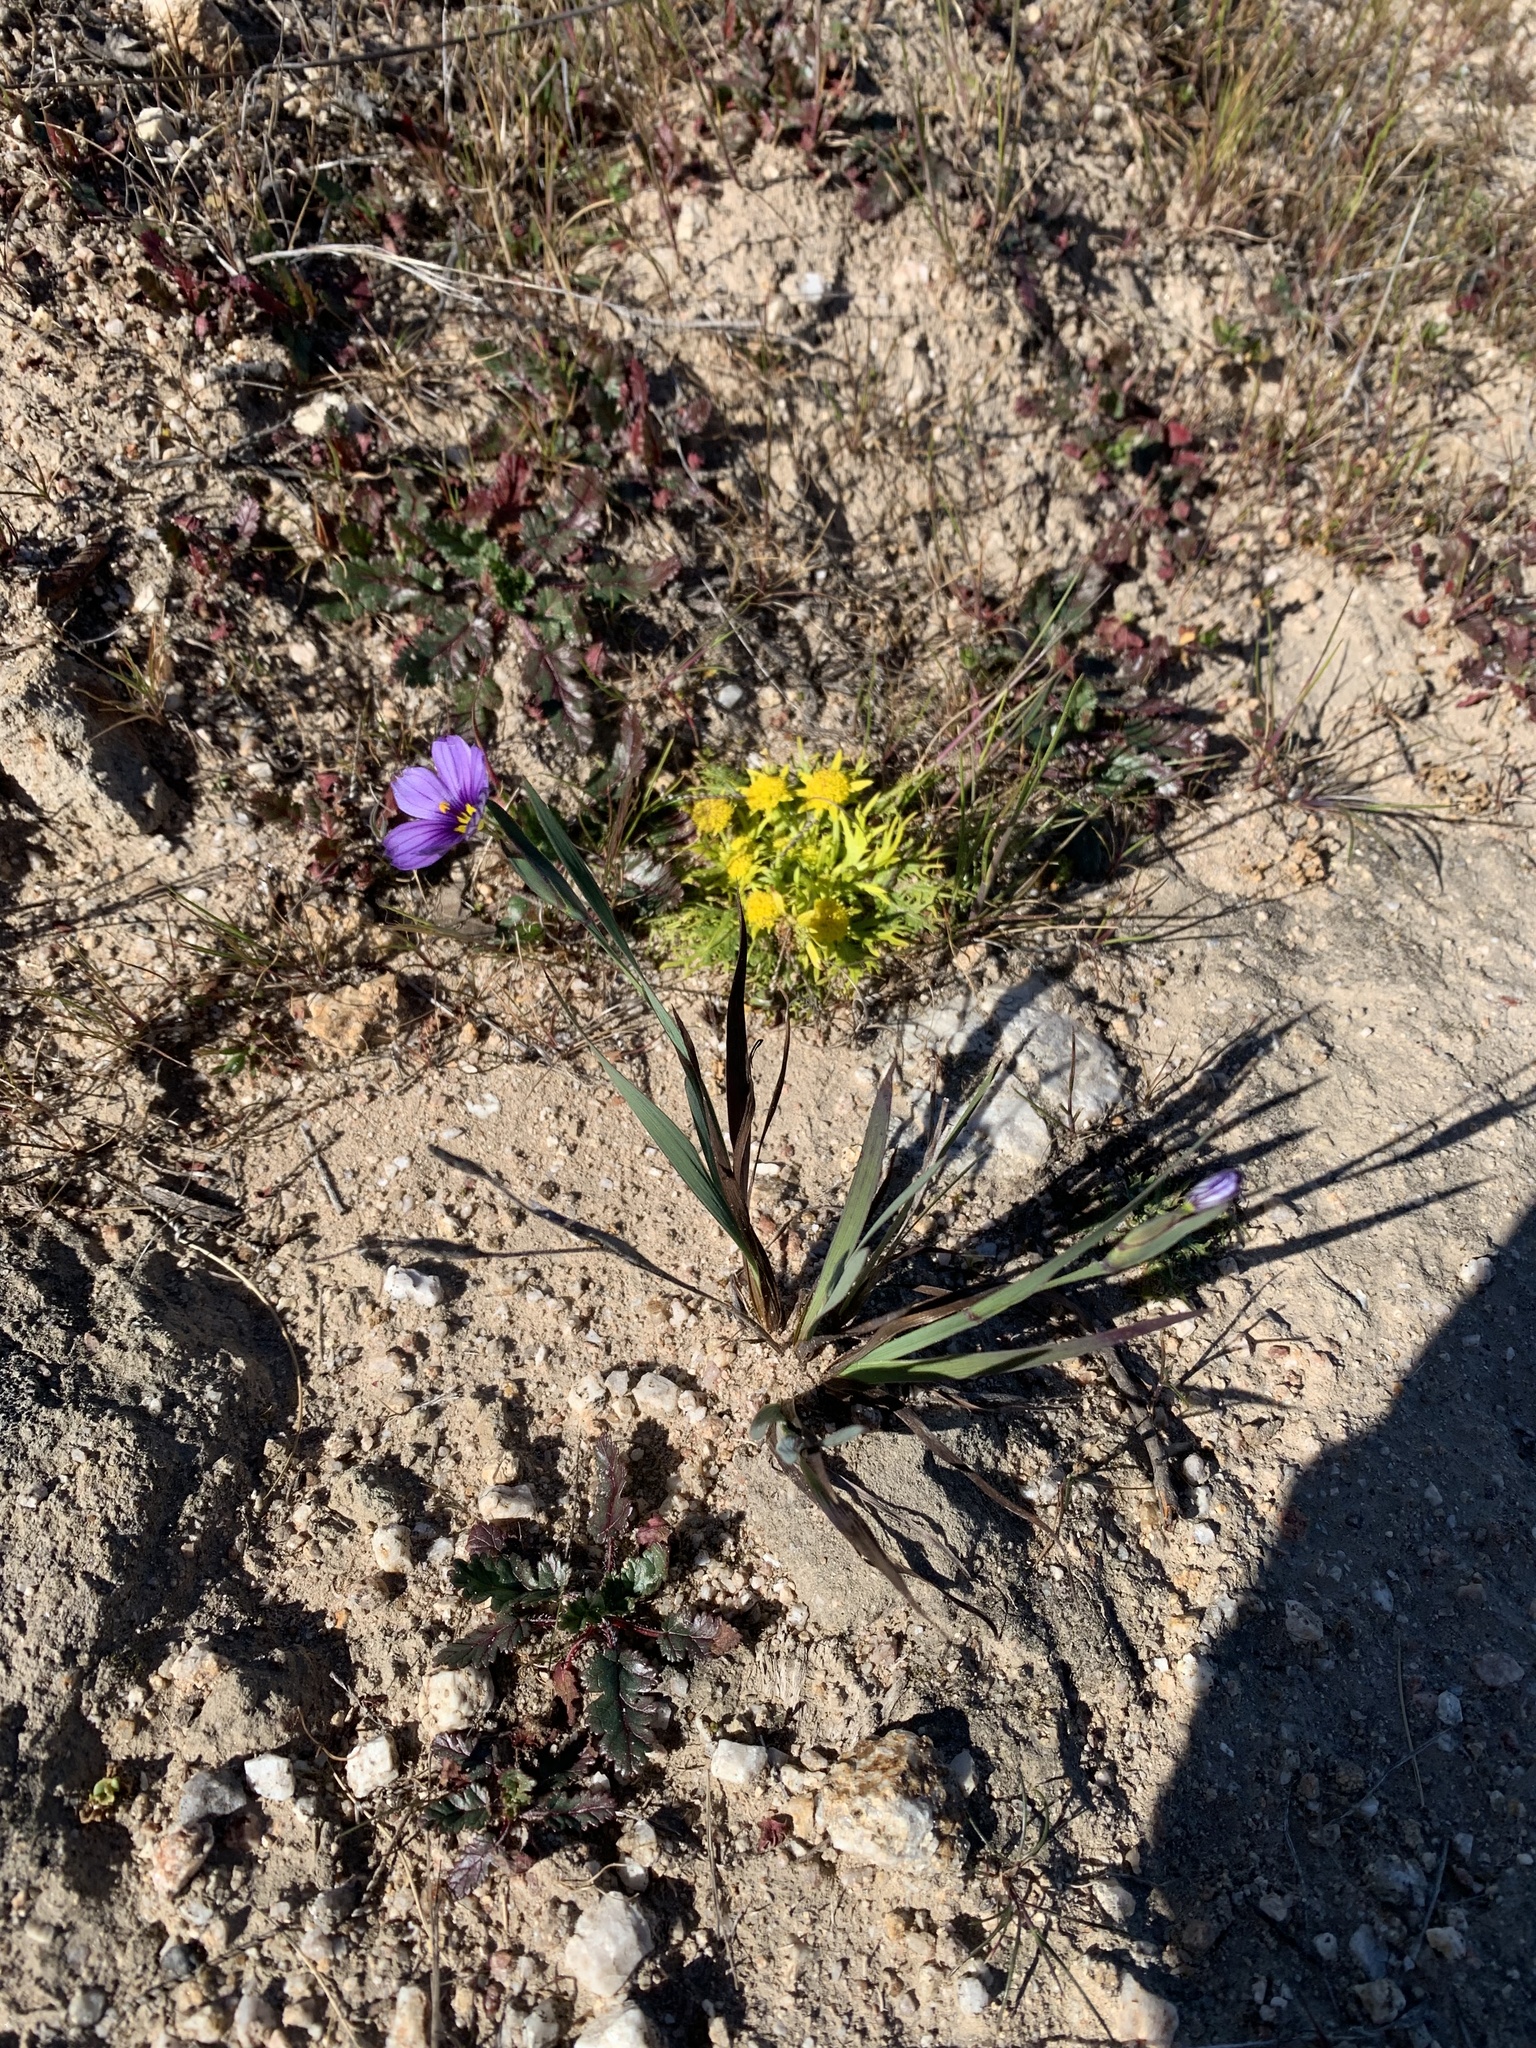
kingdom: Plantae
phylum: Tracheophyta
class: Liliopsida
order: Asparagales
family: Iridaceae
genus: Sisyrinchium
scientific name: Sisyrinchium bellum
